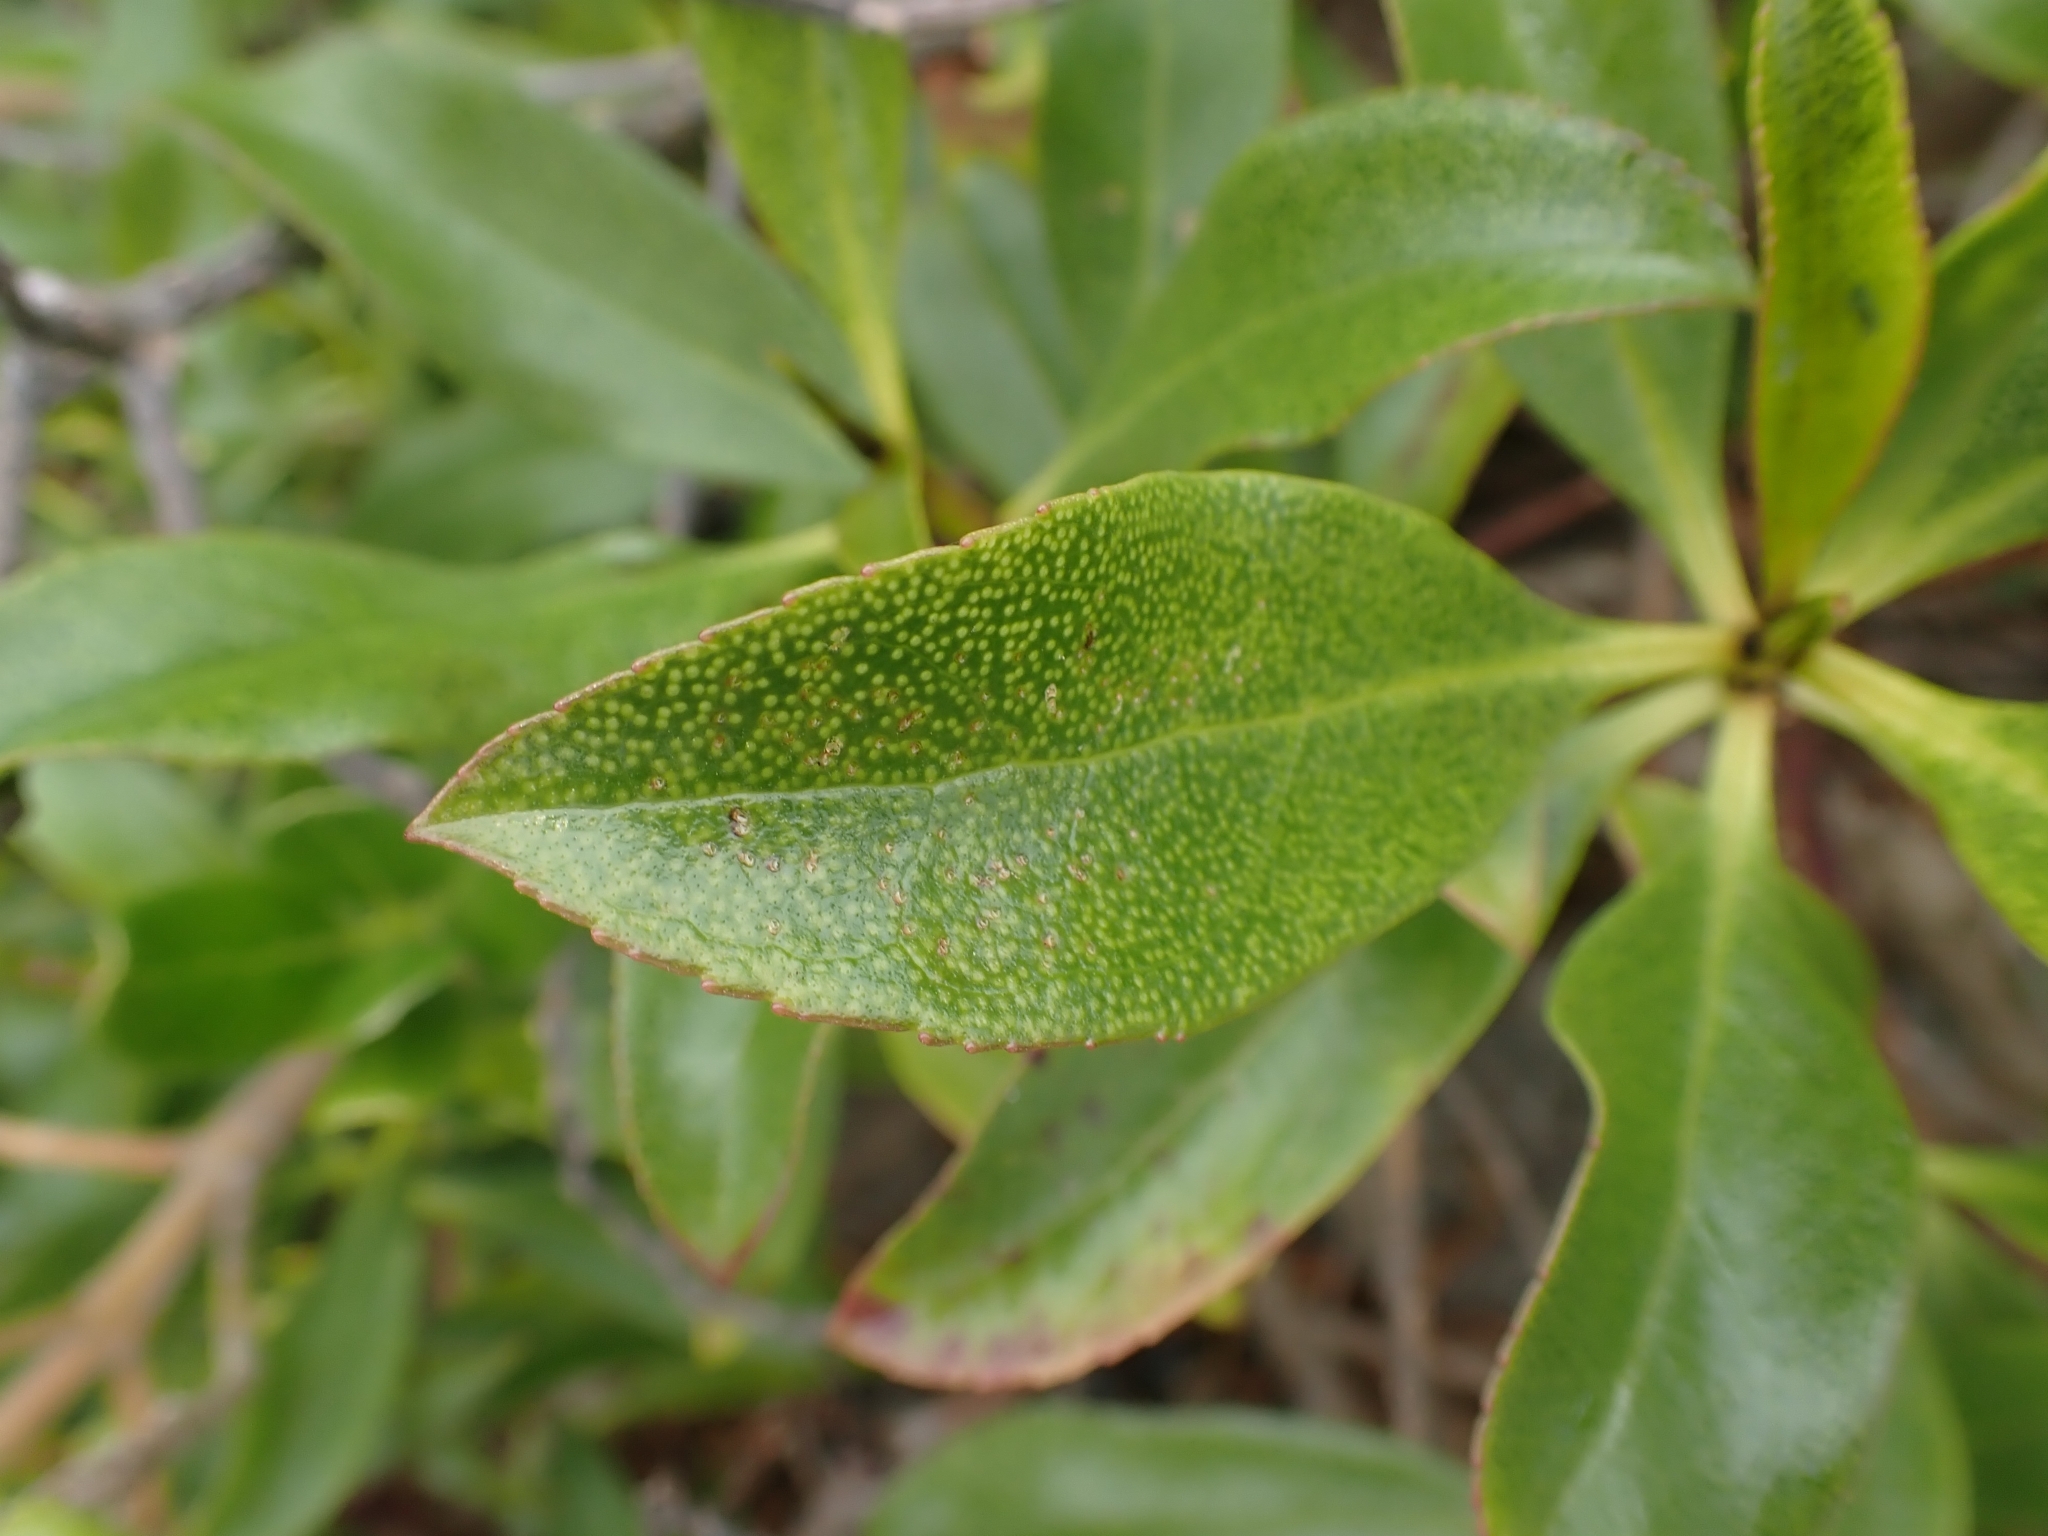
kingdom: Plantae
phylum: Tracheophyta
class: Magnoliopsida
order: Lamiales
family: Scrophulariaceae
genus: Myoporum
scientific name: Myoporum laetum
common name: Ngaio tree
